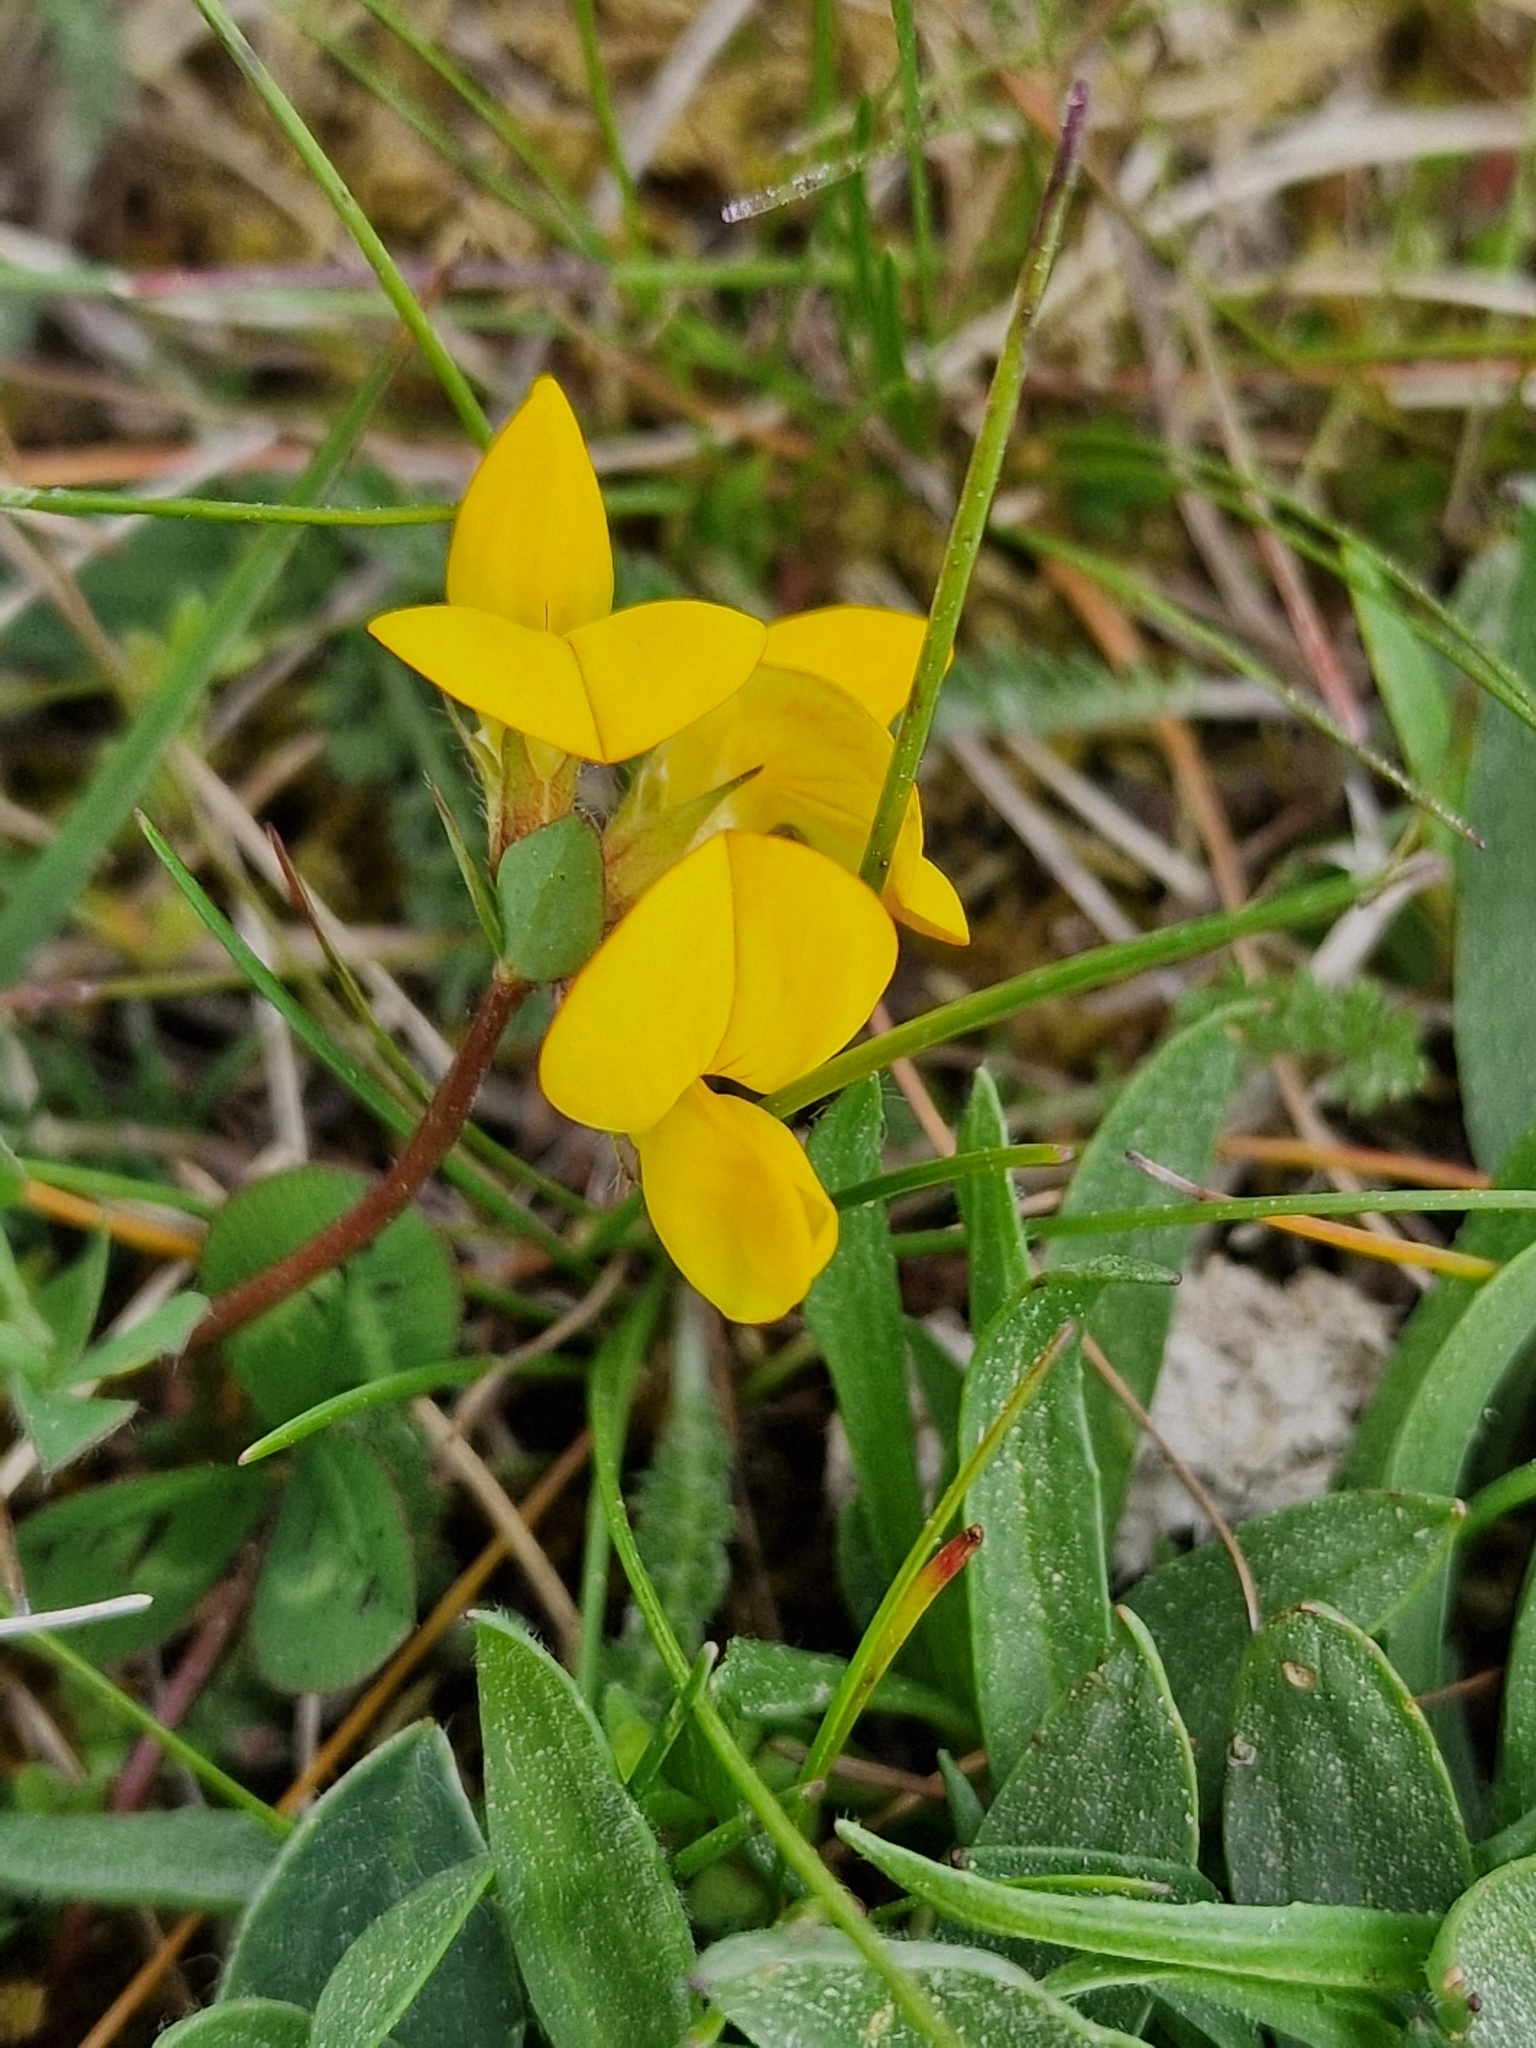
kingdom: Plantae
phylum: Tracheophyta
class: Magnoliopsida
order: Fabales
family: Fabaceae
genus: Lotus
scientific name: Lotus corniculatus
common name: Common bird's-foot-trefoil
